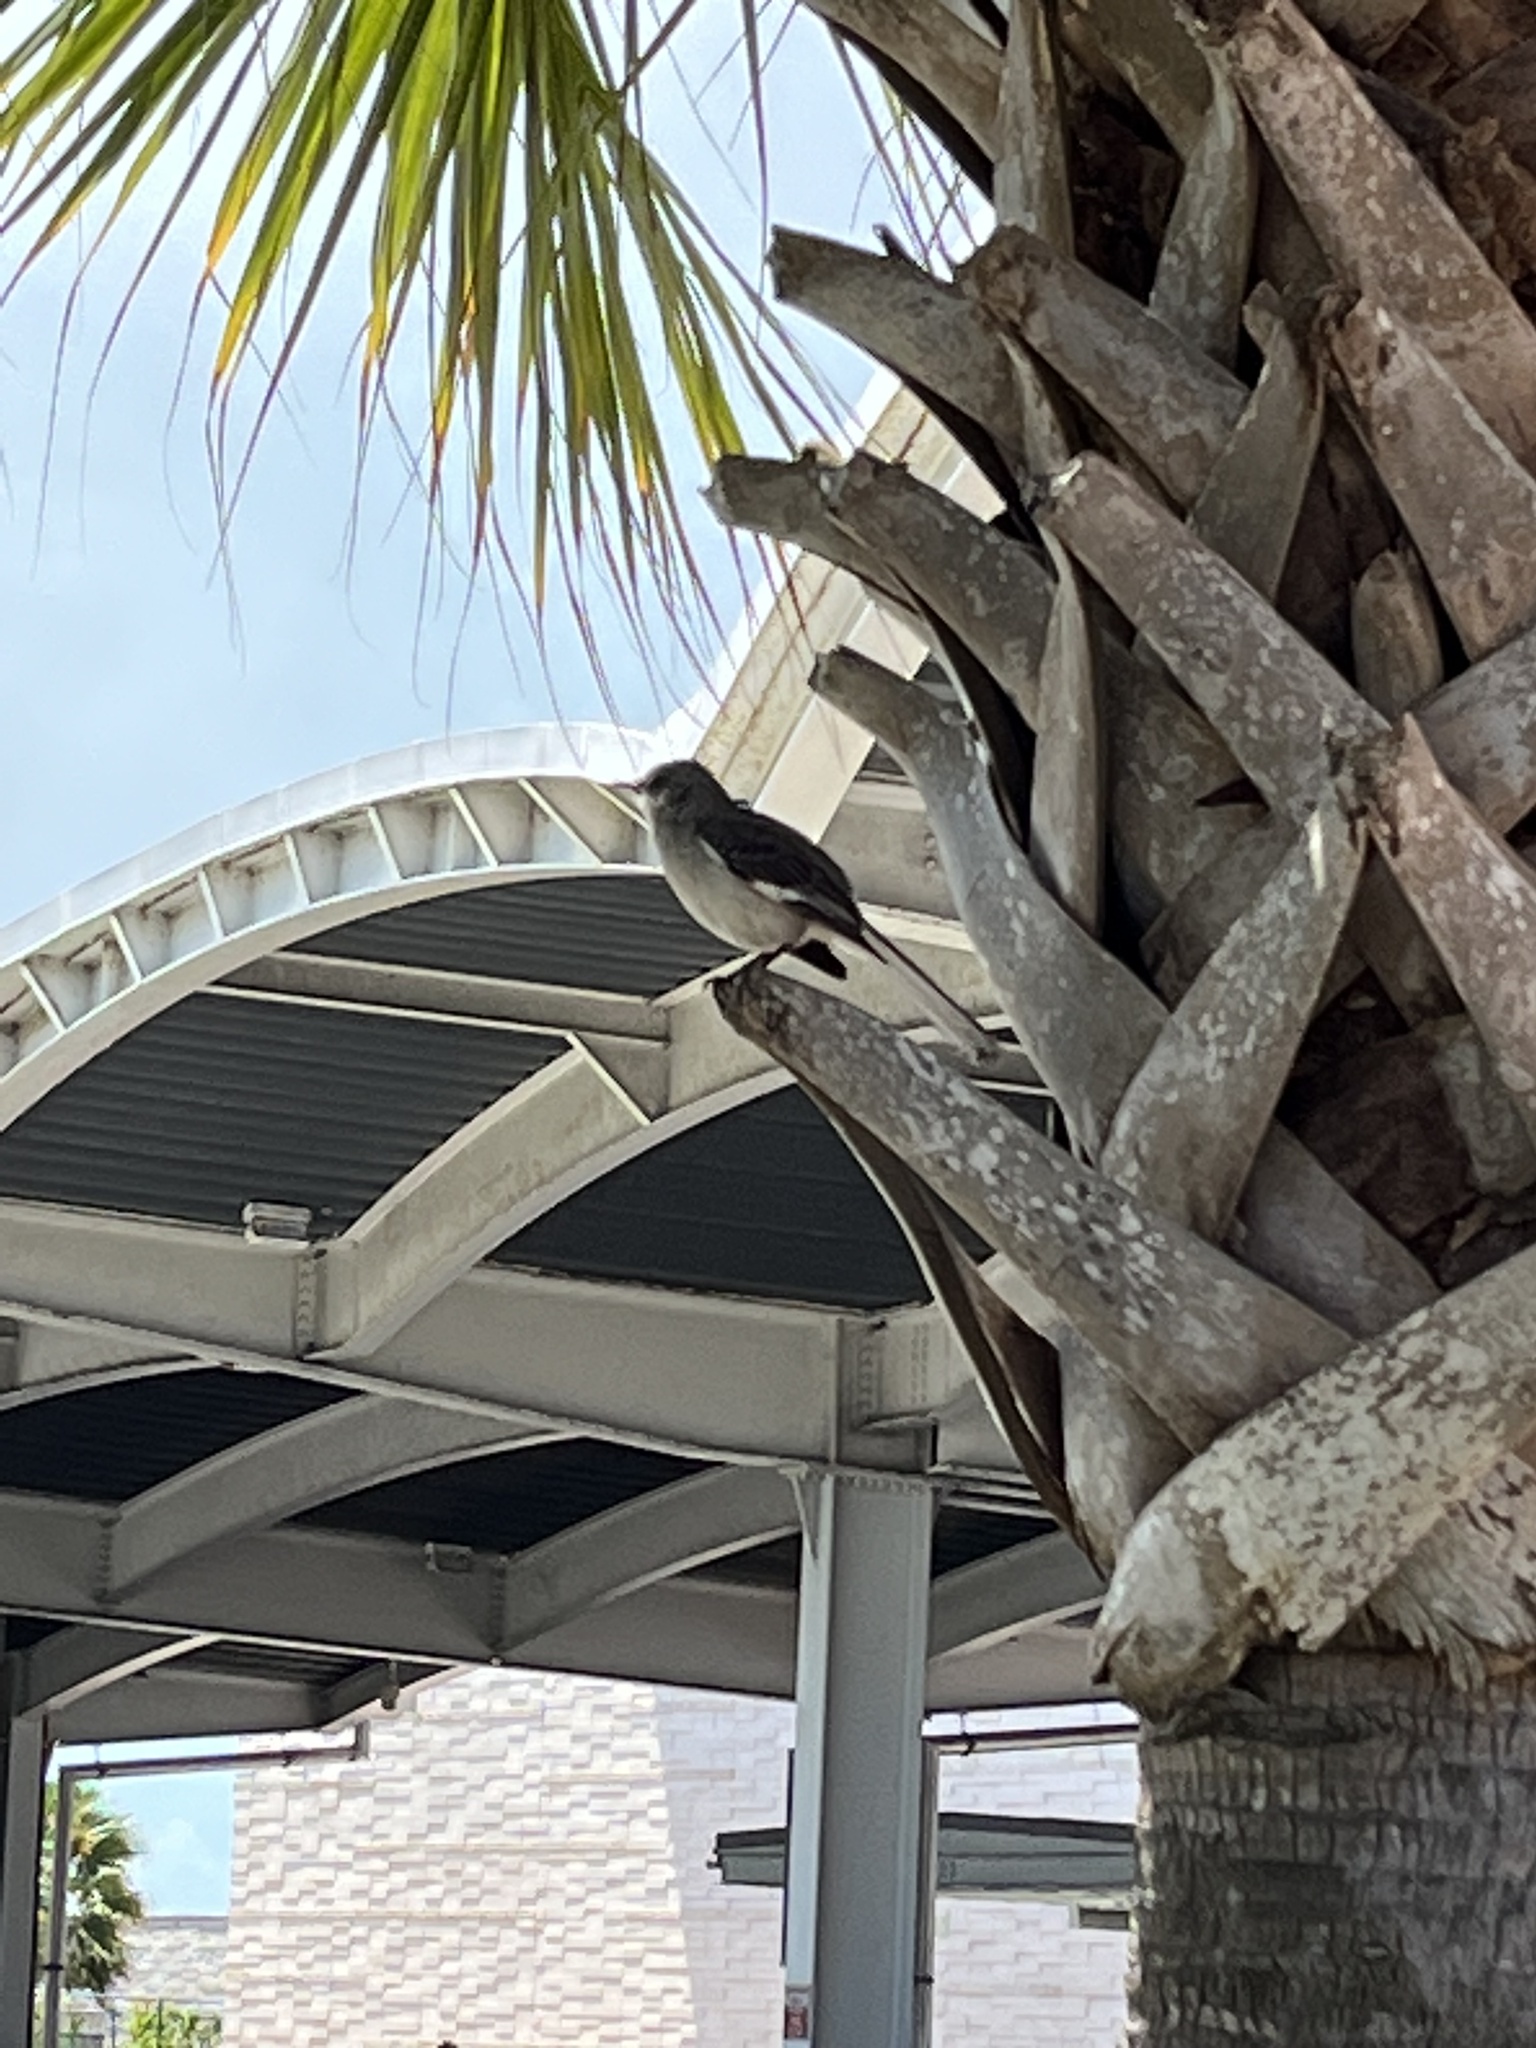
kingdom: Animalia
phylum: Chordata
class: Aves
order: Passeriformes
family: Mimidae
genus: Mimus
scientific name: Mimus polyglottos
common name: Northern mockingbird
